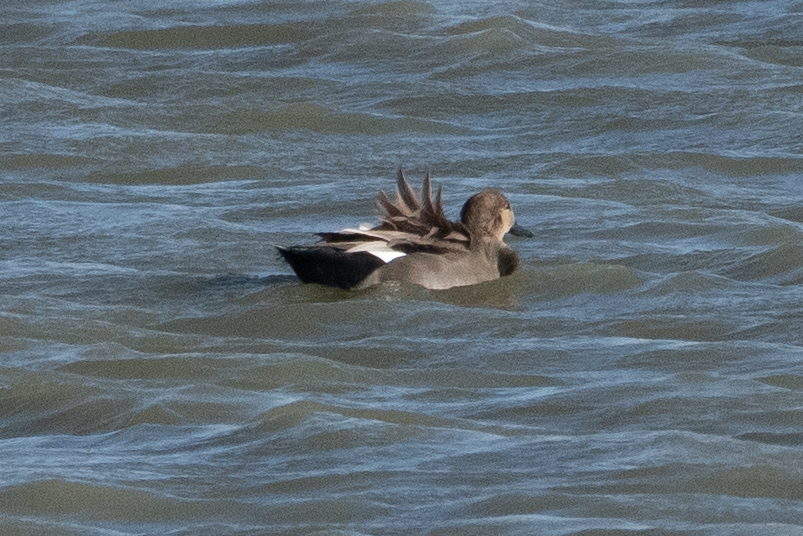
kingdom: Animalia
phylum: Chordata
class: Aves
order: Anseriformes
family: Anatidae
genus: Mareca
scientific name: Mareca strepera
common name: Gadwall
